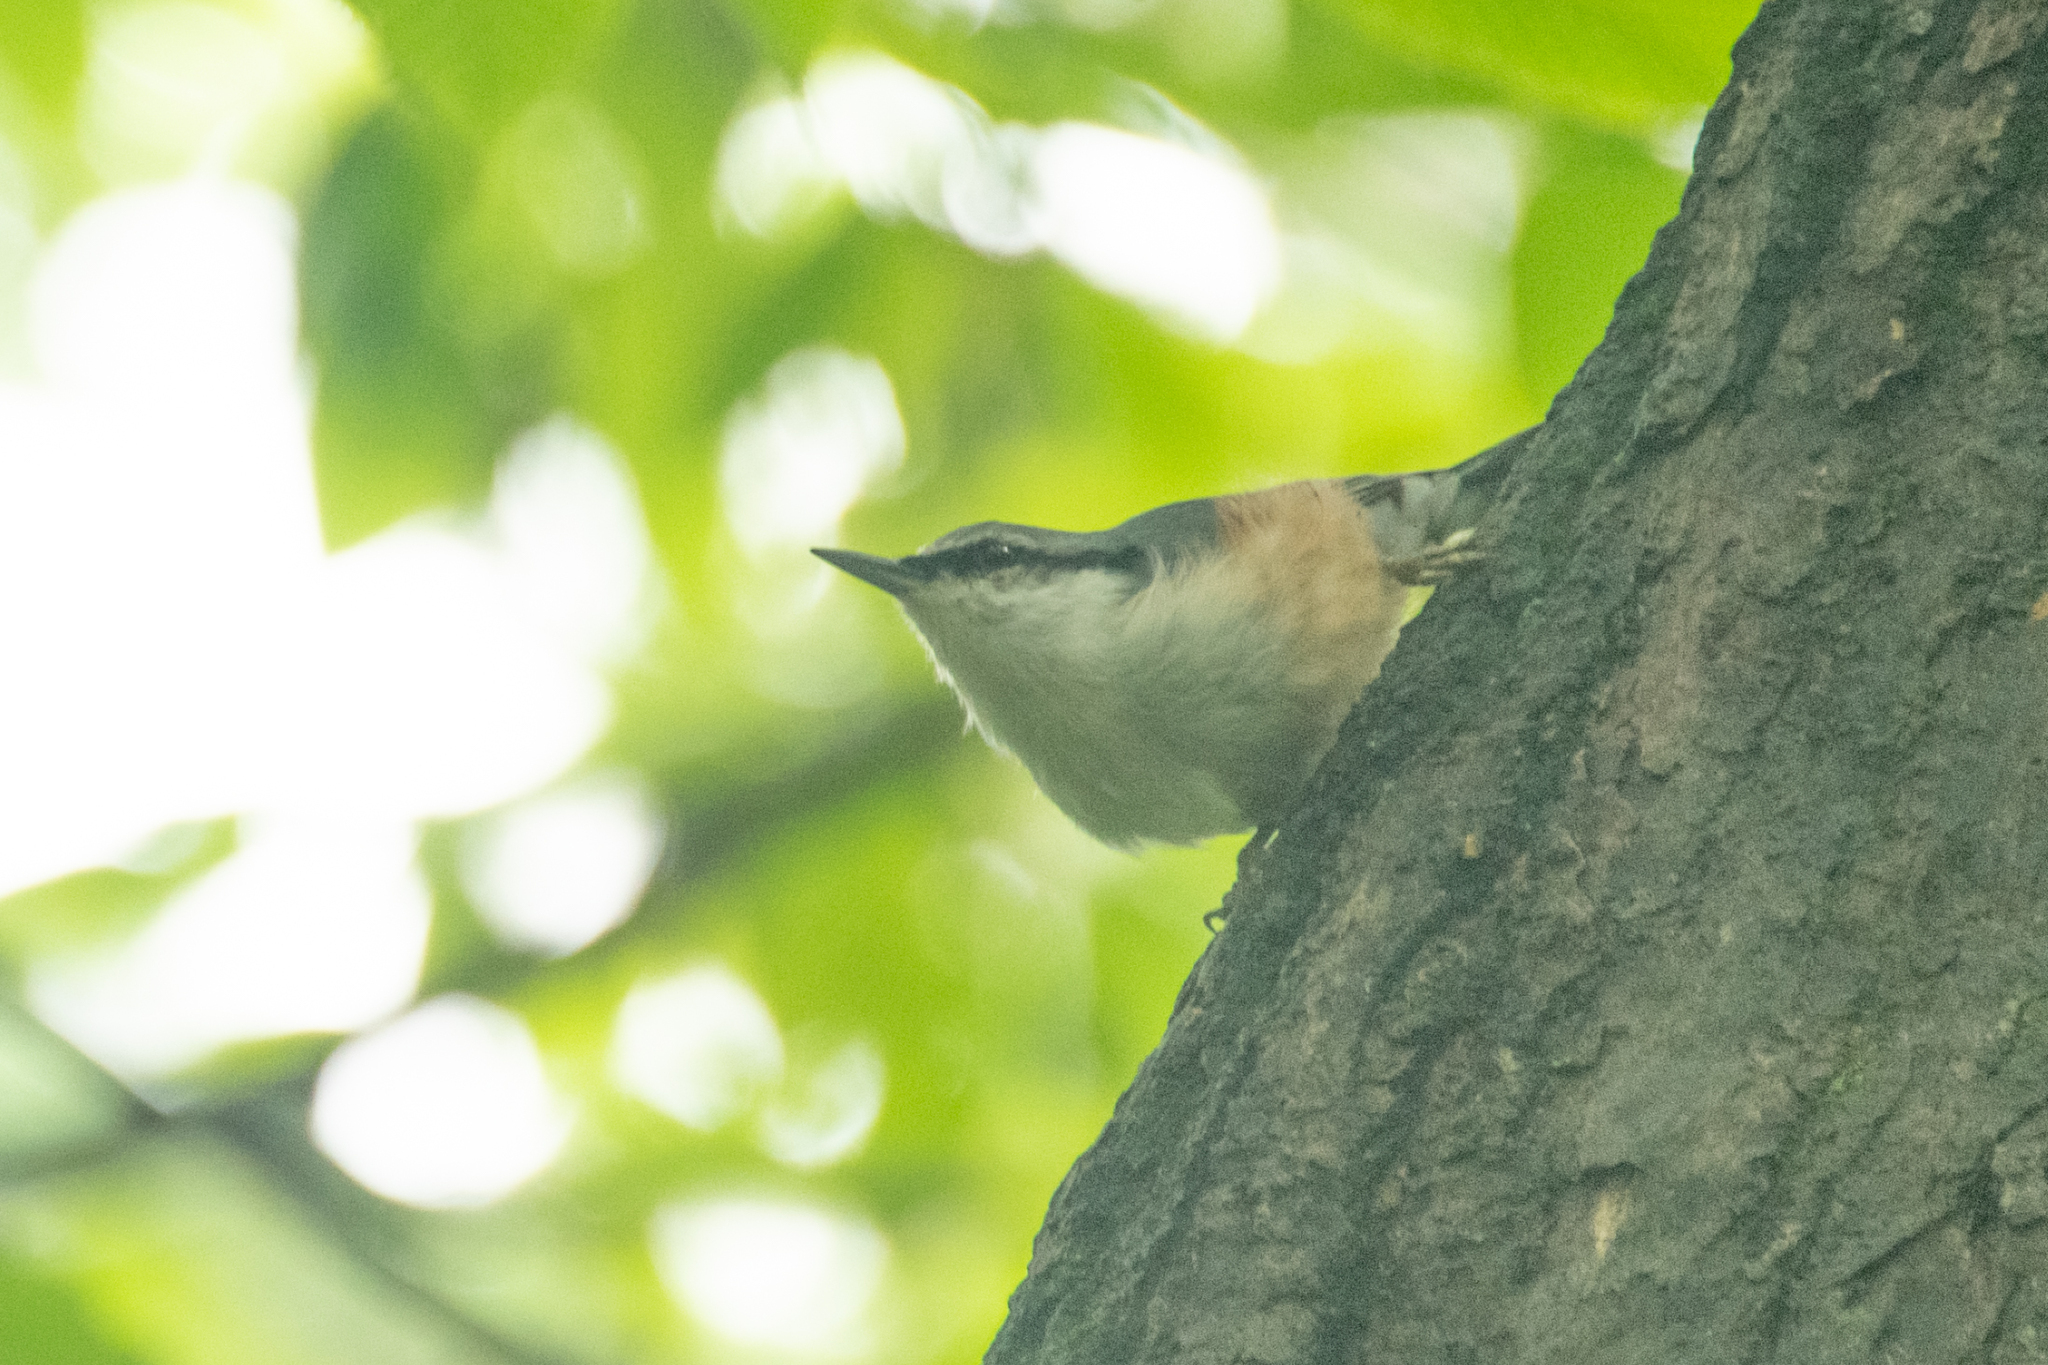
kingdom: Animalia
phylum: Chordata
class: Aves
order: Passeriformes
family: Sittidae
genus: Sitta
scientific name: Sitta europaea
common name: Eurasian nuthatch
